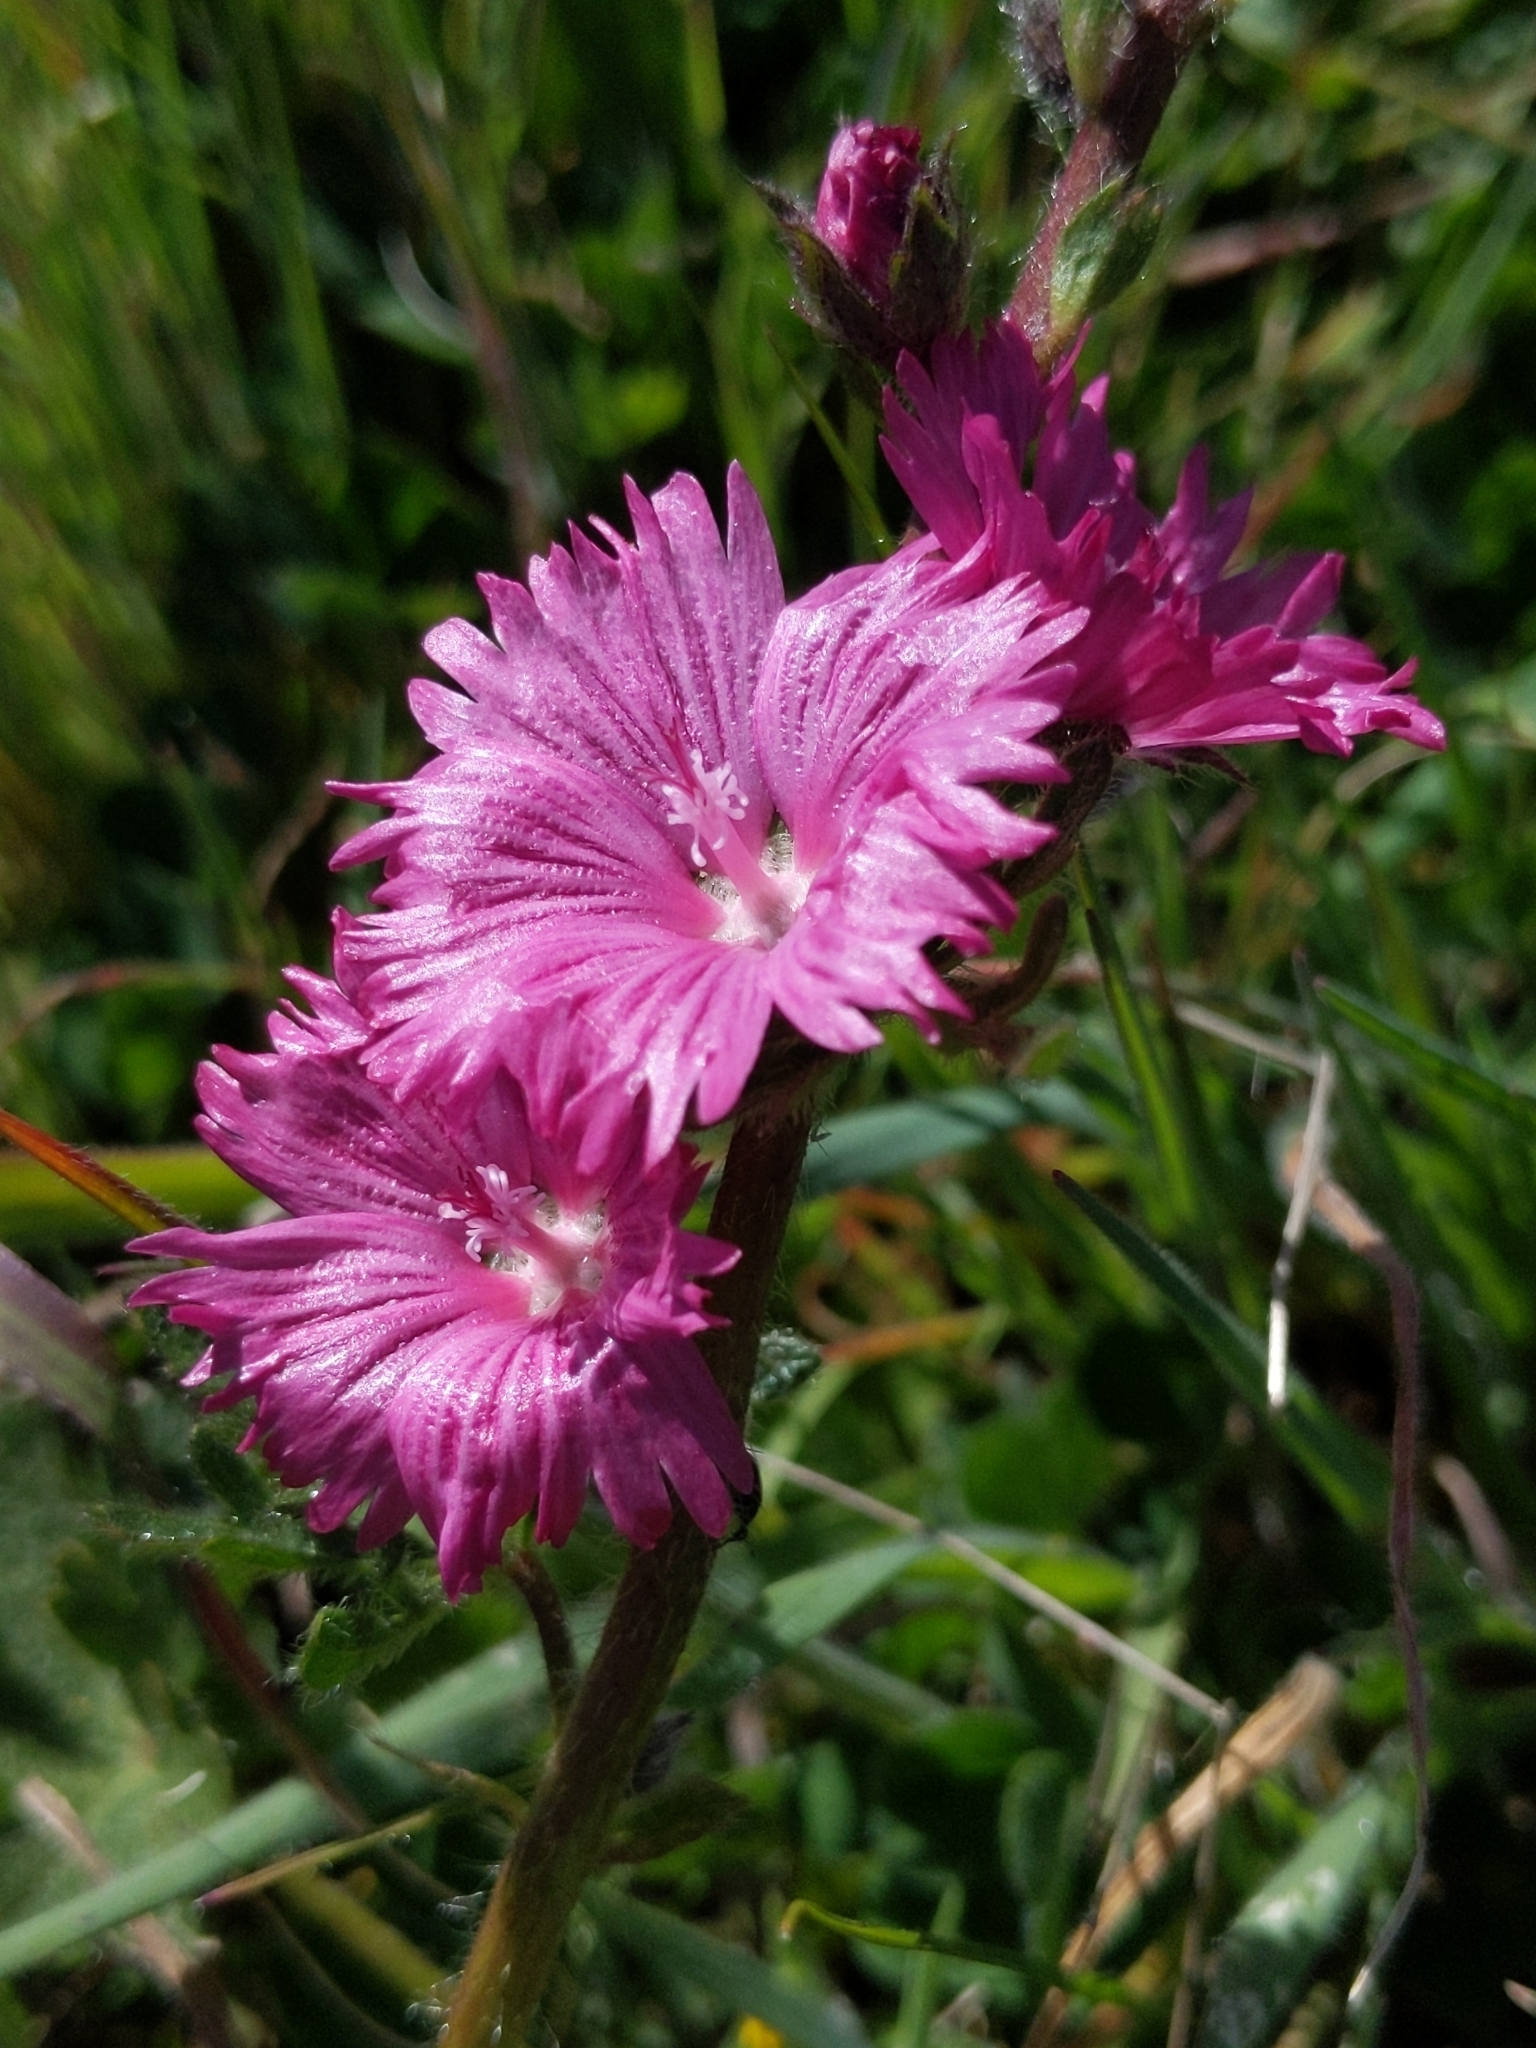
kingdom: Plantae
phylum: Tracheophyta
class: Magnoliopsida
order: Malvales
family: Malvaceae
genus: Sidalcea
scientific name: Sidalcea malviflora
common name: Greek mallow
